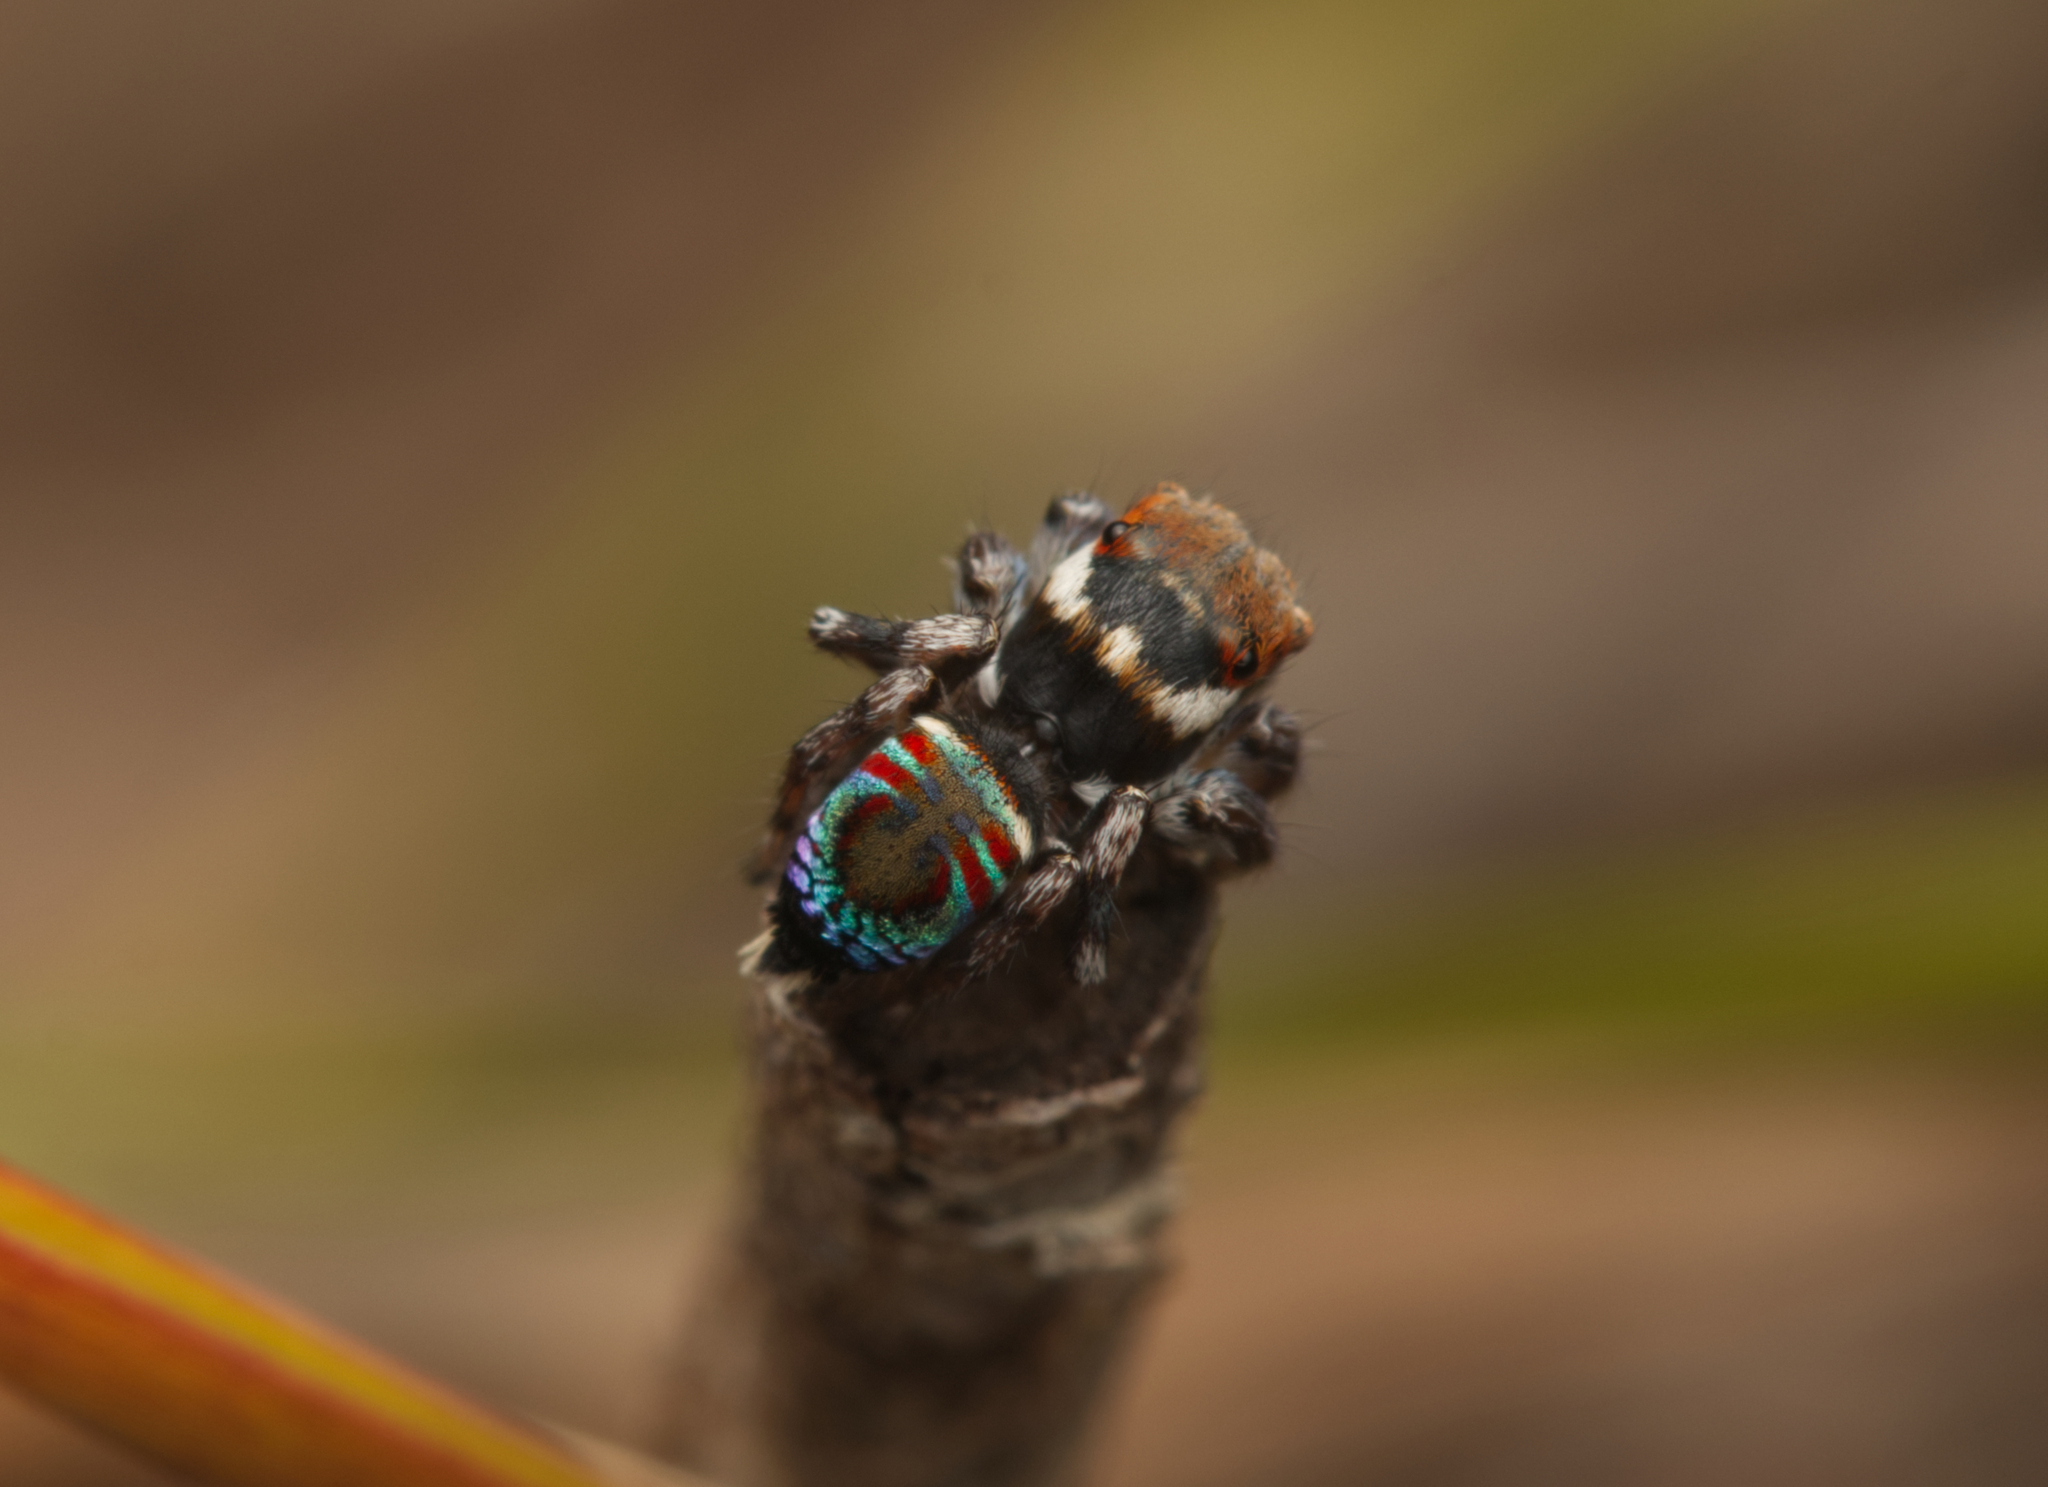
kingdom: Animalia
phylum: Arthropoda
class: Arachnida
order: Araneae
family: Salticidae
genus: Maratus
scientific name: Maratus ottoi
